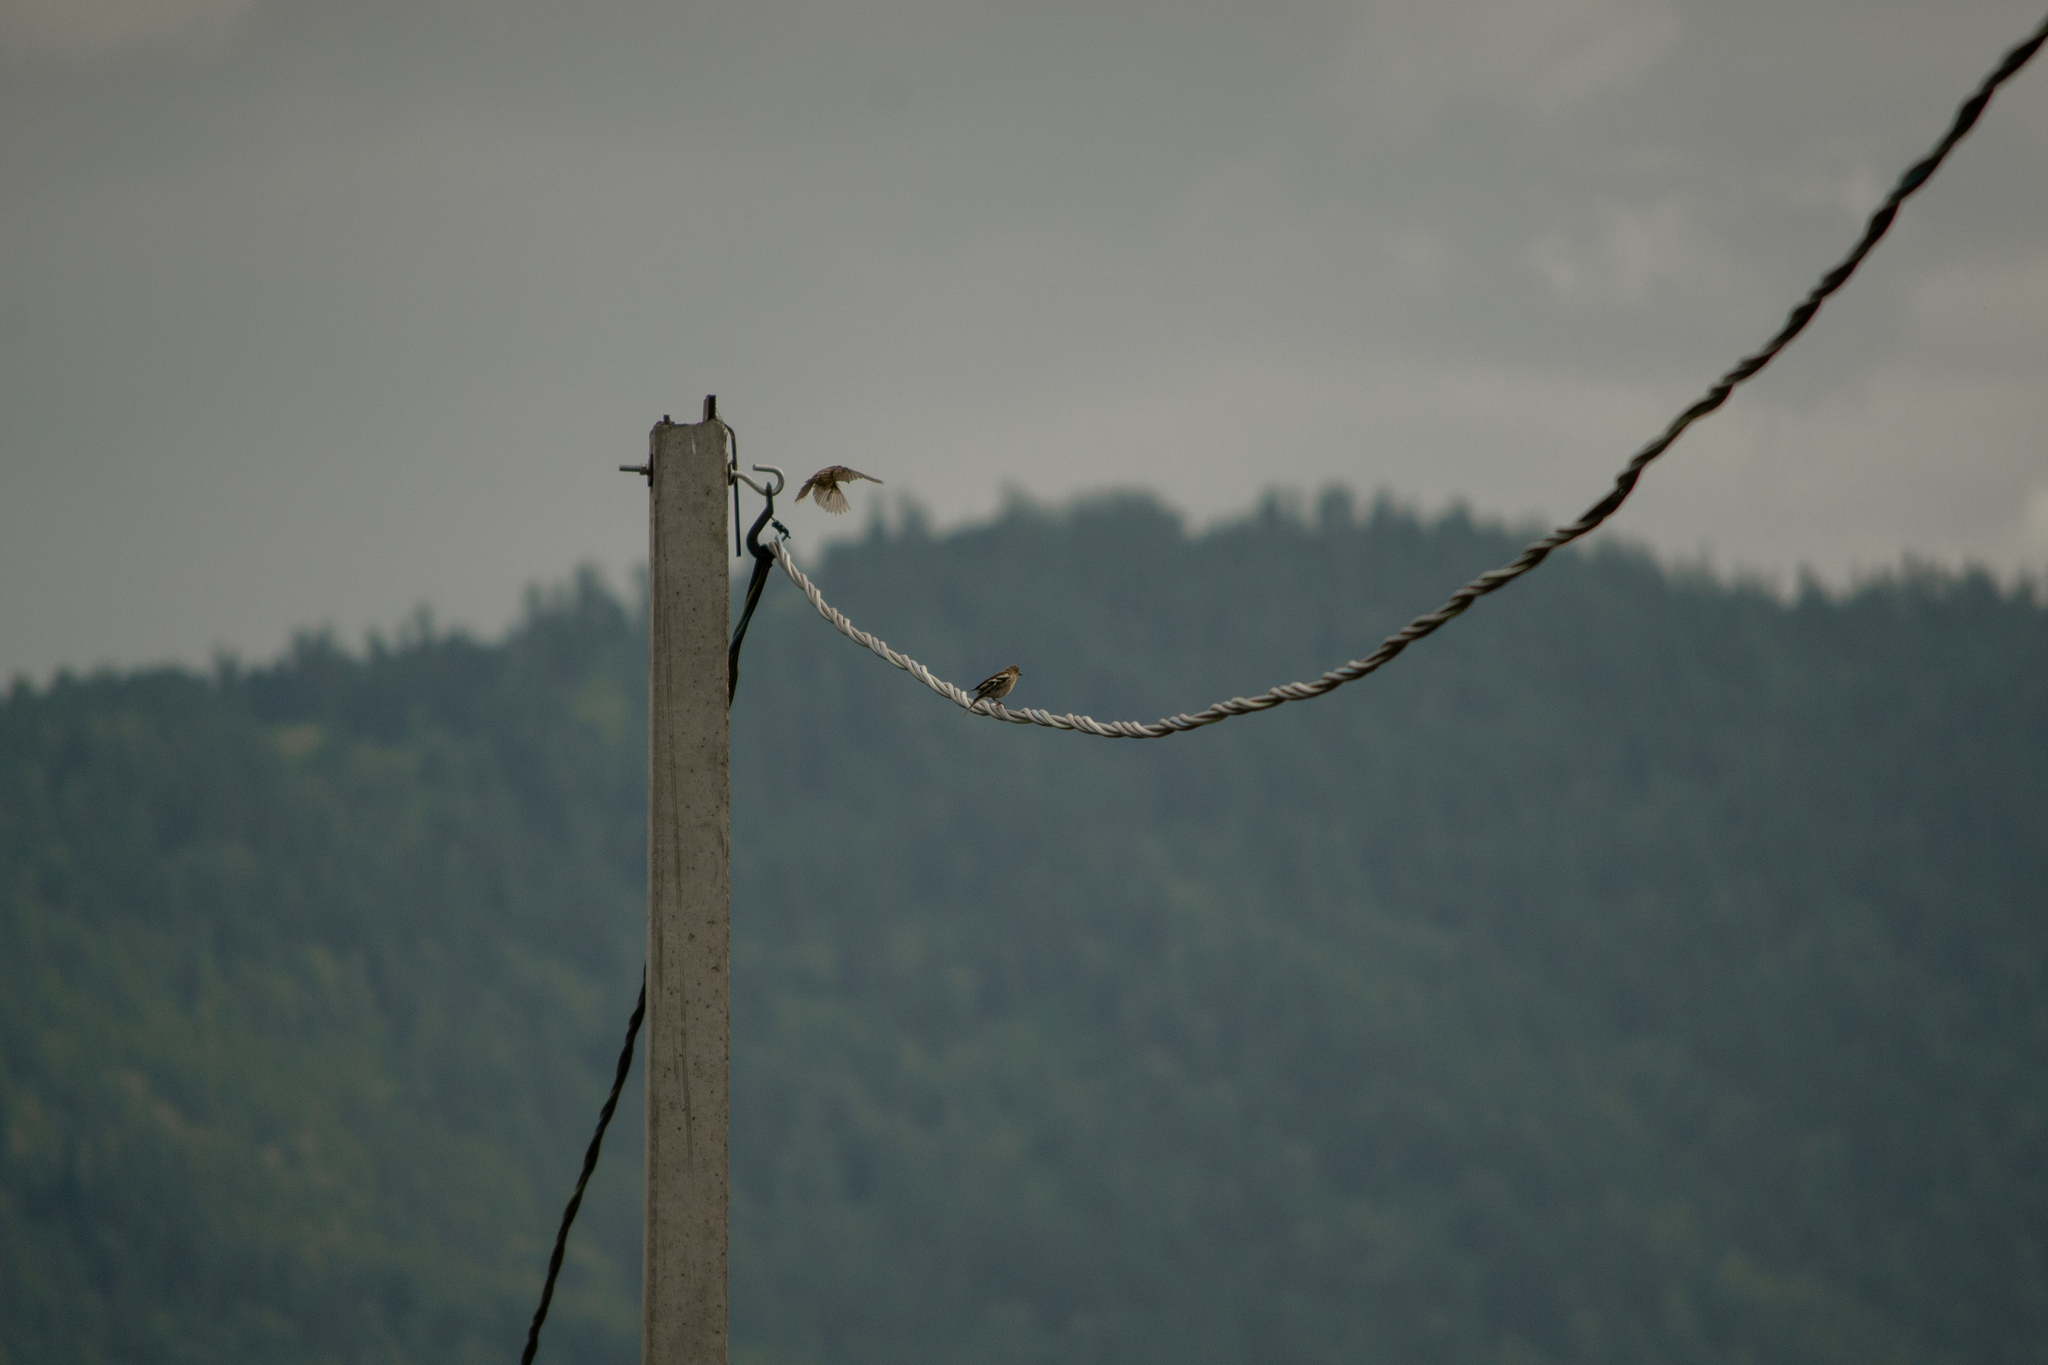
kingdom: Animalia
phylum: Chordata
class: Aves
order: Passeriformes
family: Fringillidae
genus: Fringilla
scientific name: Fringilla coelebs
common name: Common chaffinch
